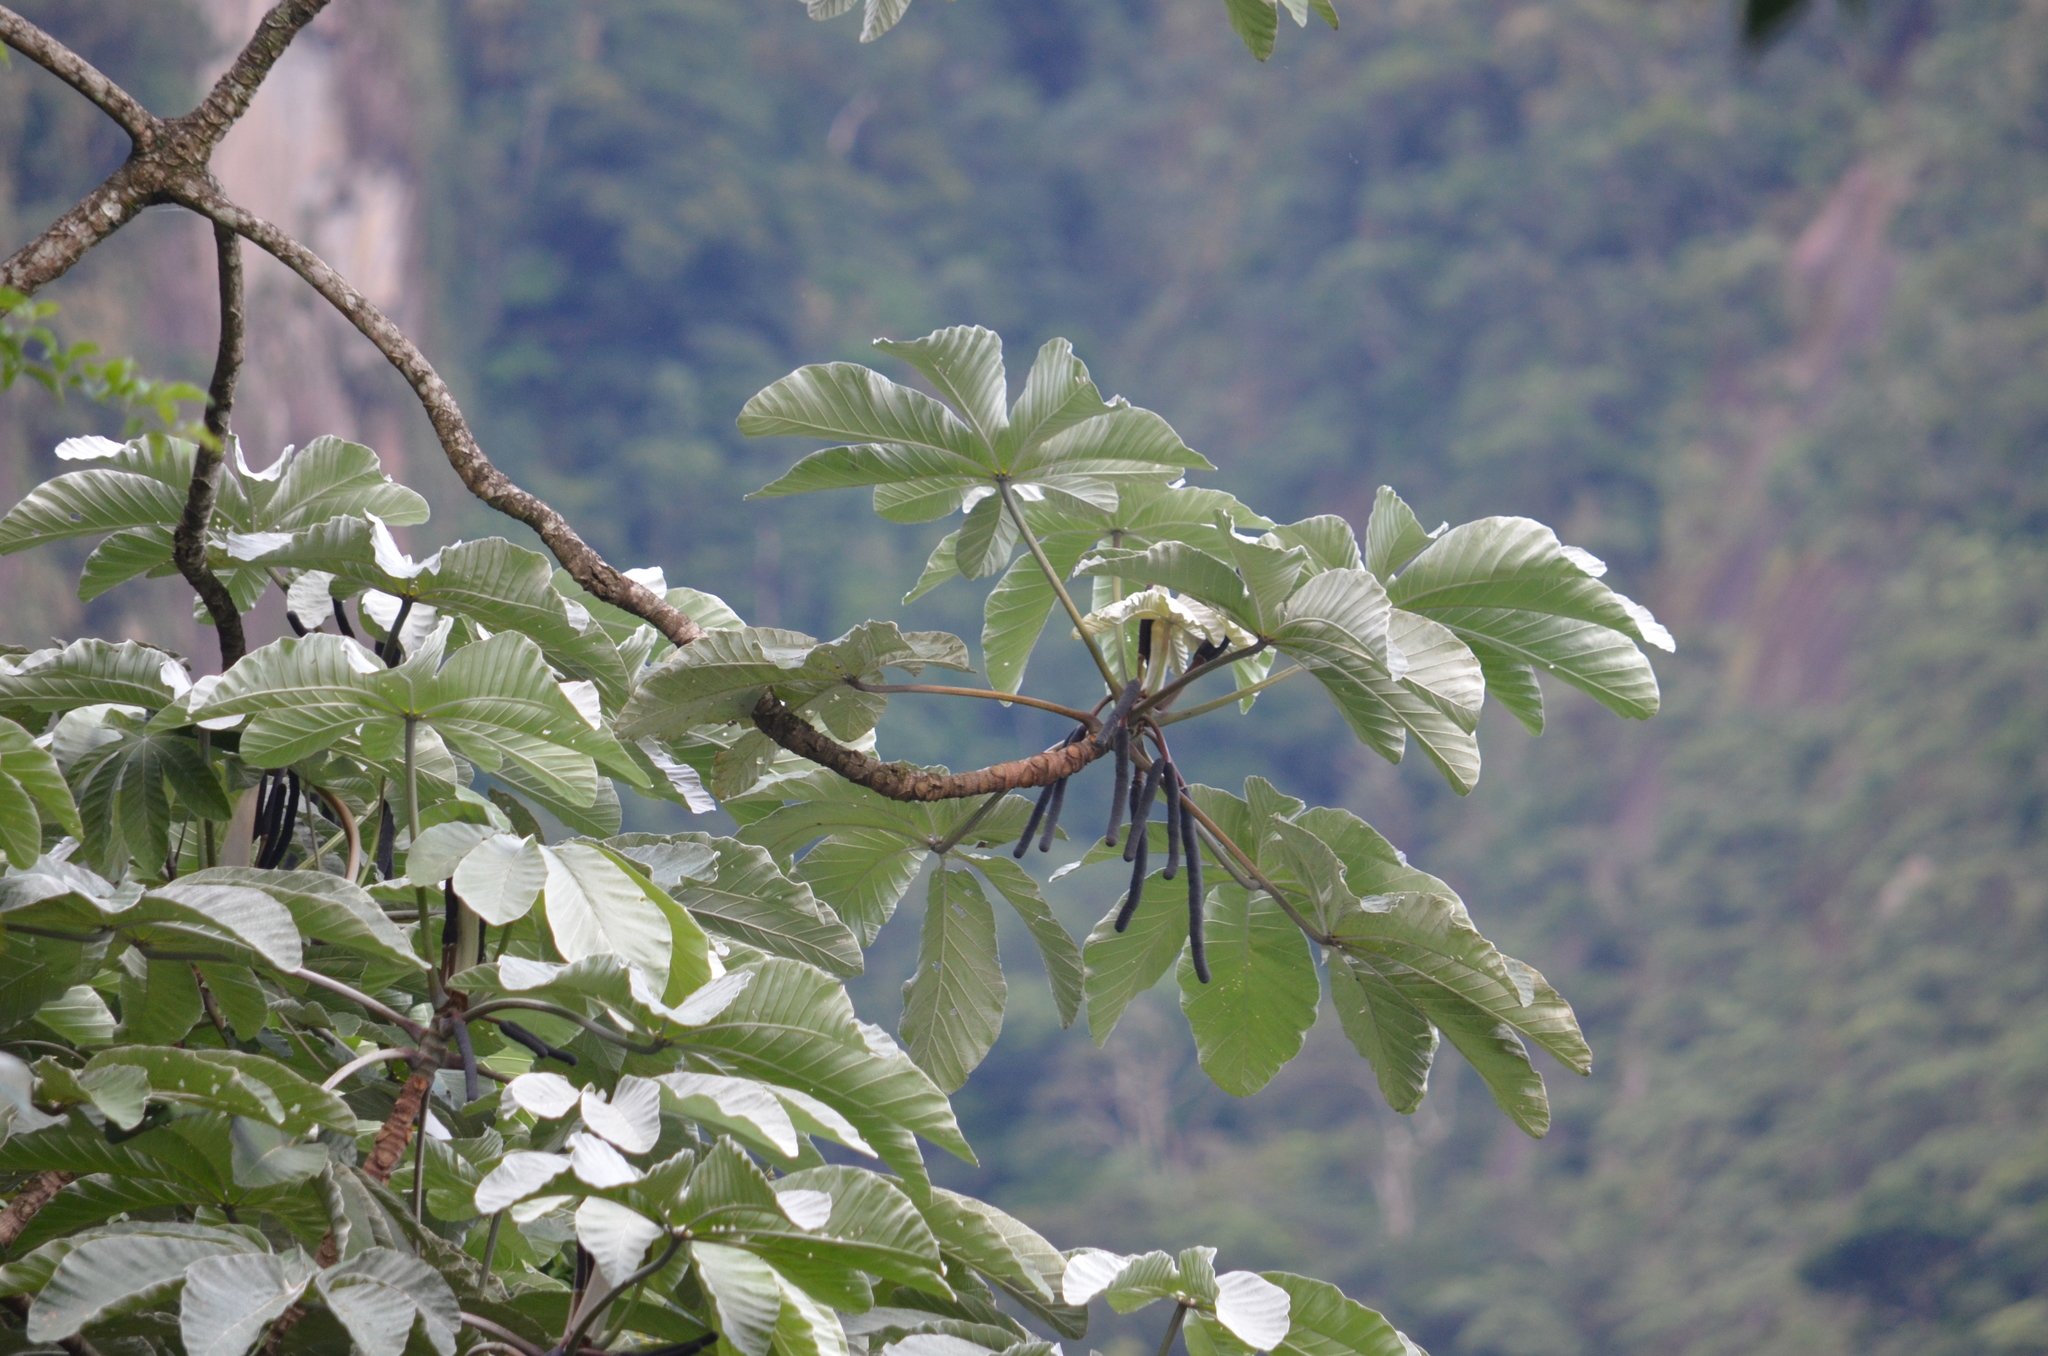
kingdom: Plantae
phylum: Tracheophyta
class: Magnoliopsida
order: Rosales
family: Urticaceae
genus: Cecropia
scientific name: Cecropia hololeuca
